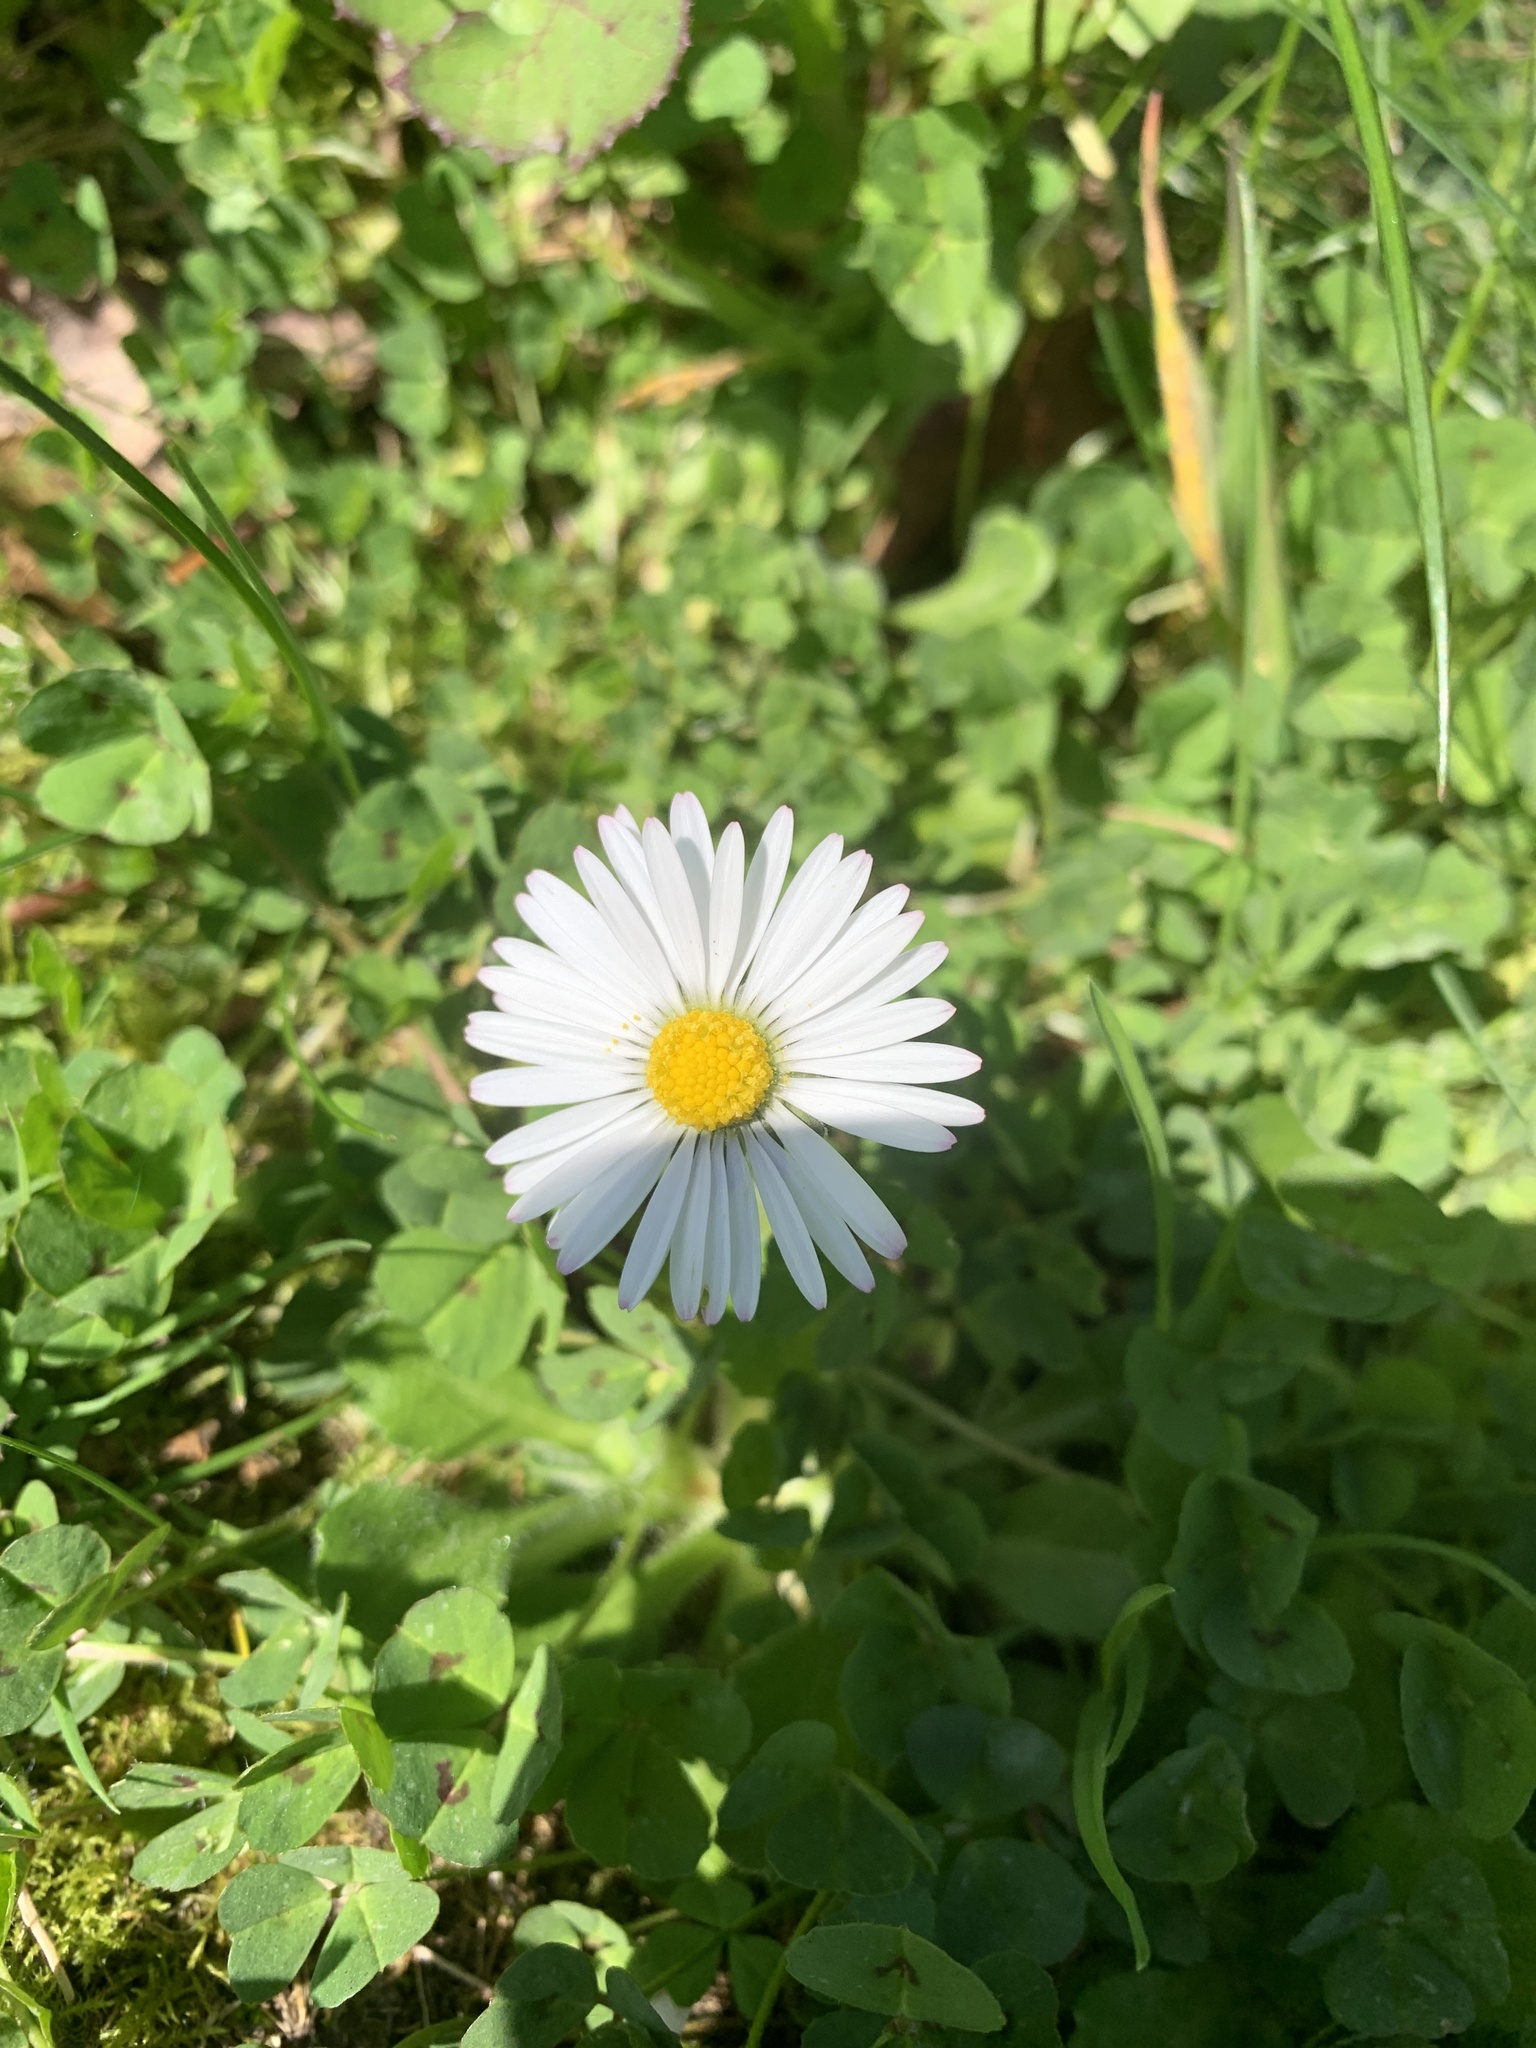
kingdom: Plantae
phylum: Tracheophyta
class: Magnoliopsida
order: Asterales
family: Asteraceae
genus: Bellis
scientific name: Bellis perennis
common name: Lawndaisy
